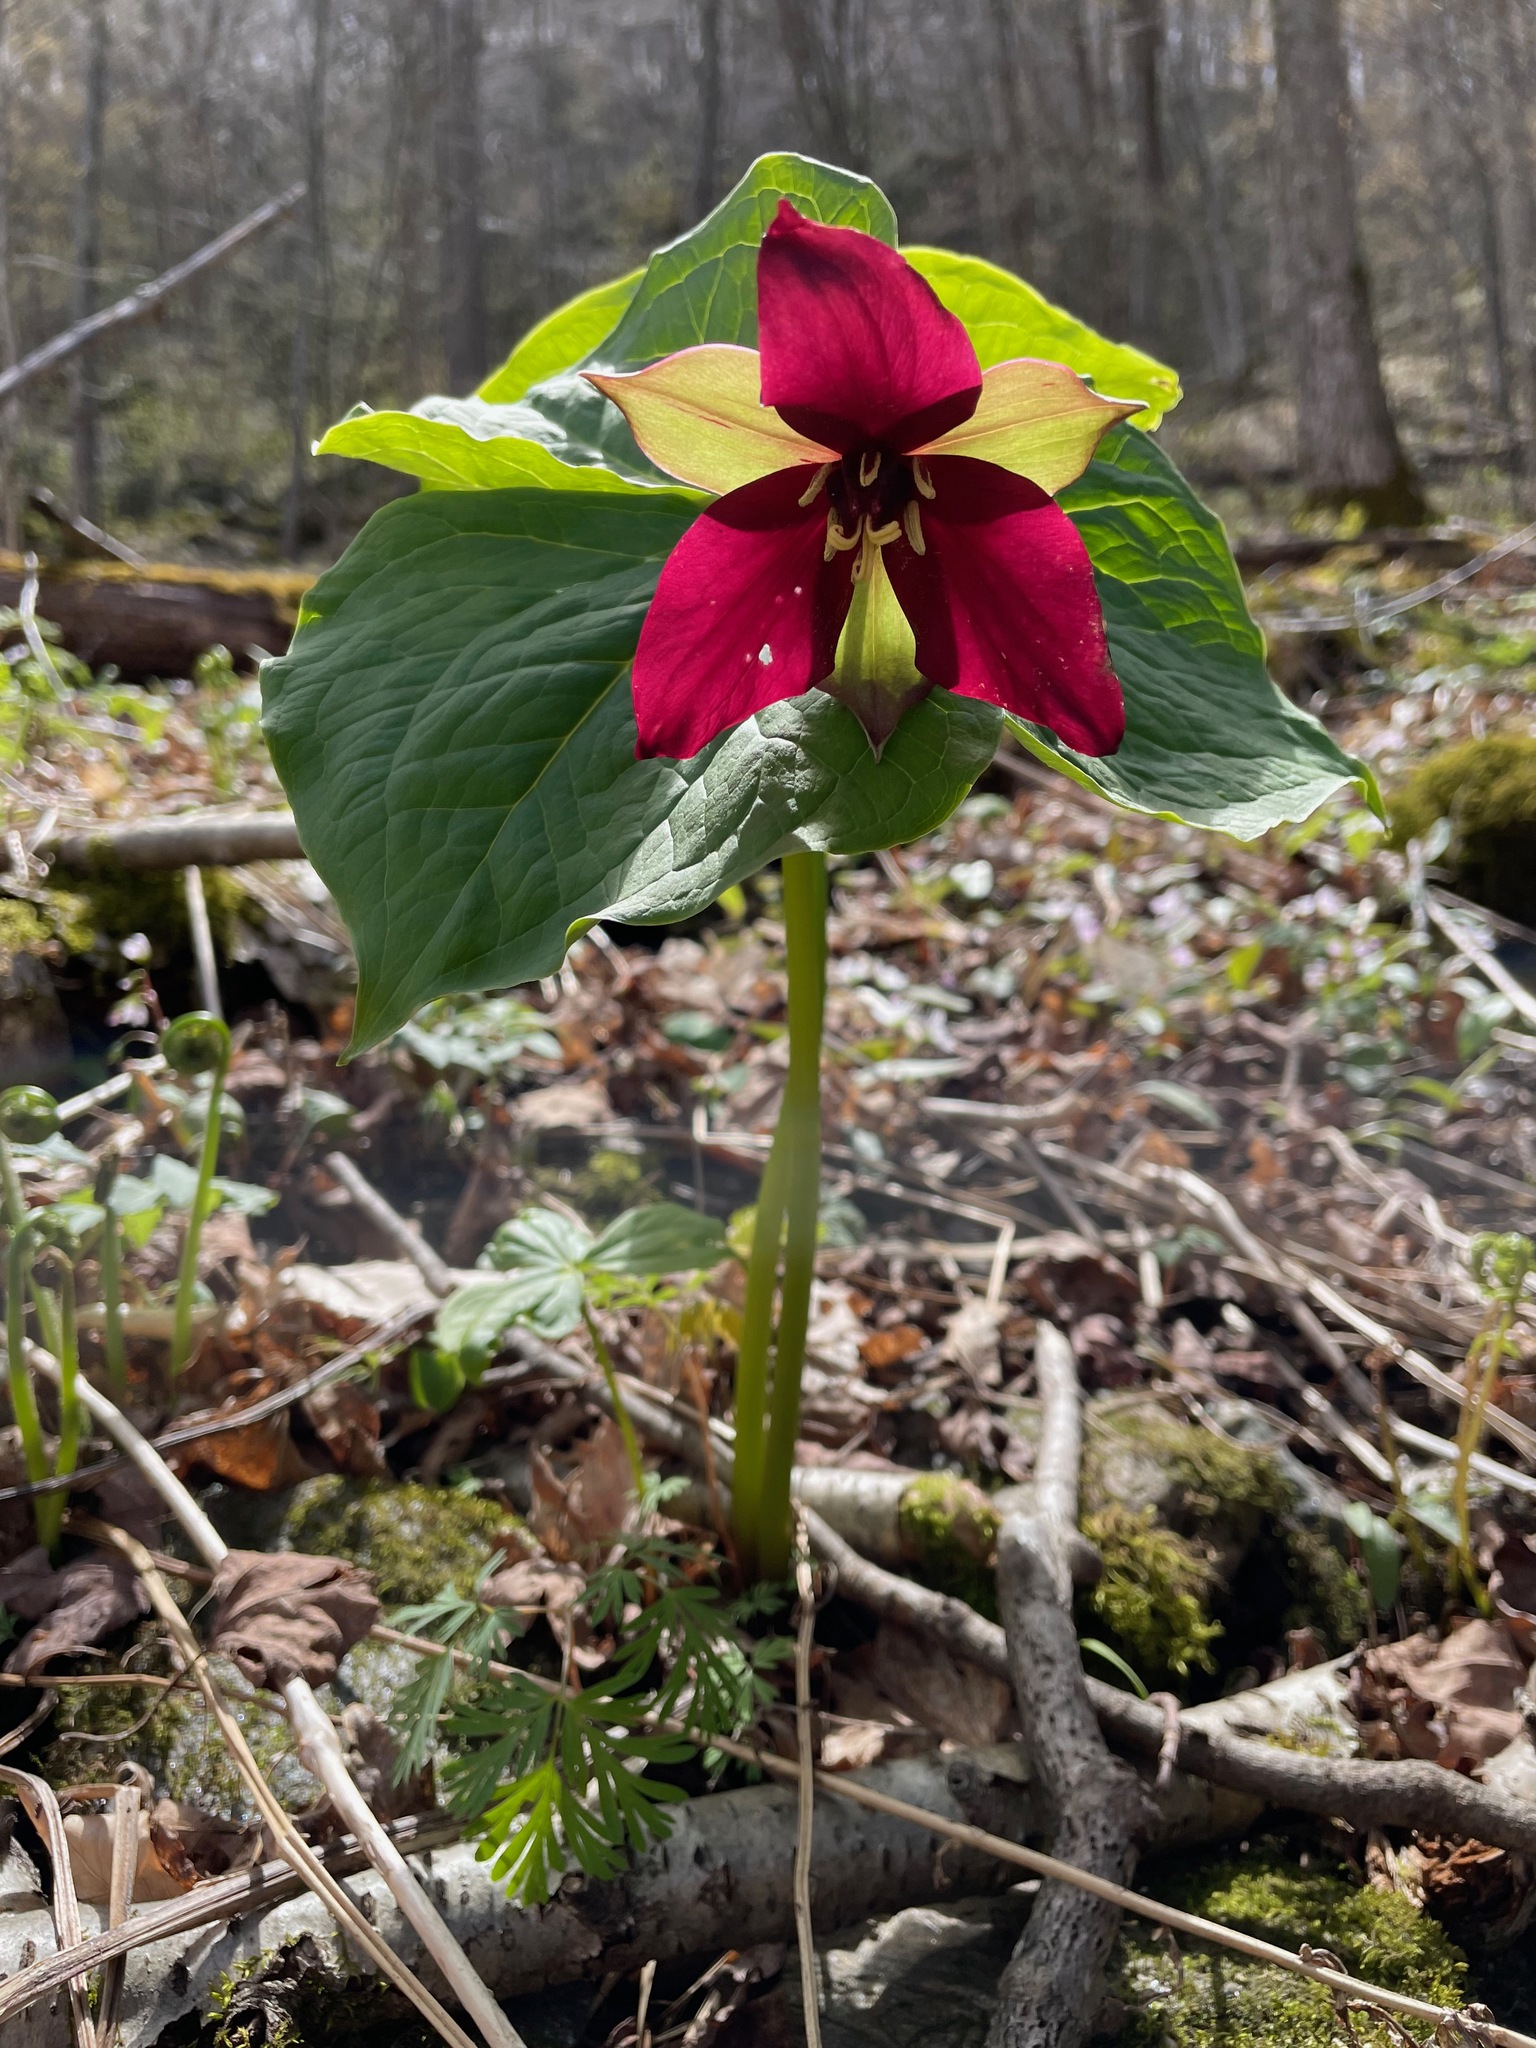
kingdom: Plantae
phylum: Tracheophyta
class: Liliopsida
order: Liliales
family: Melanthiaceae
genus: Trillium
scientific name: Trillium erectum
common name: Purple trillium
